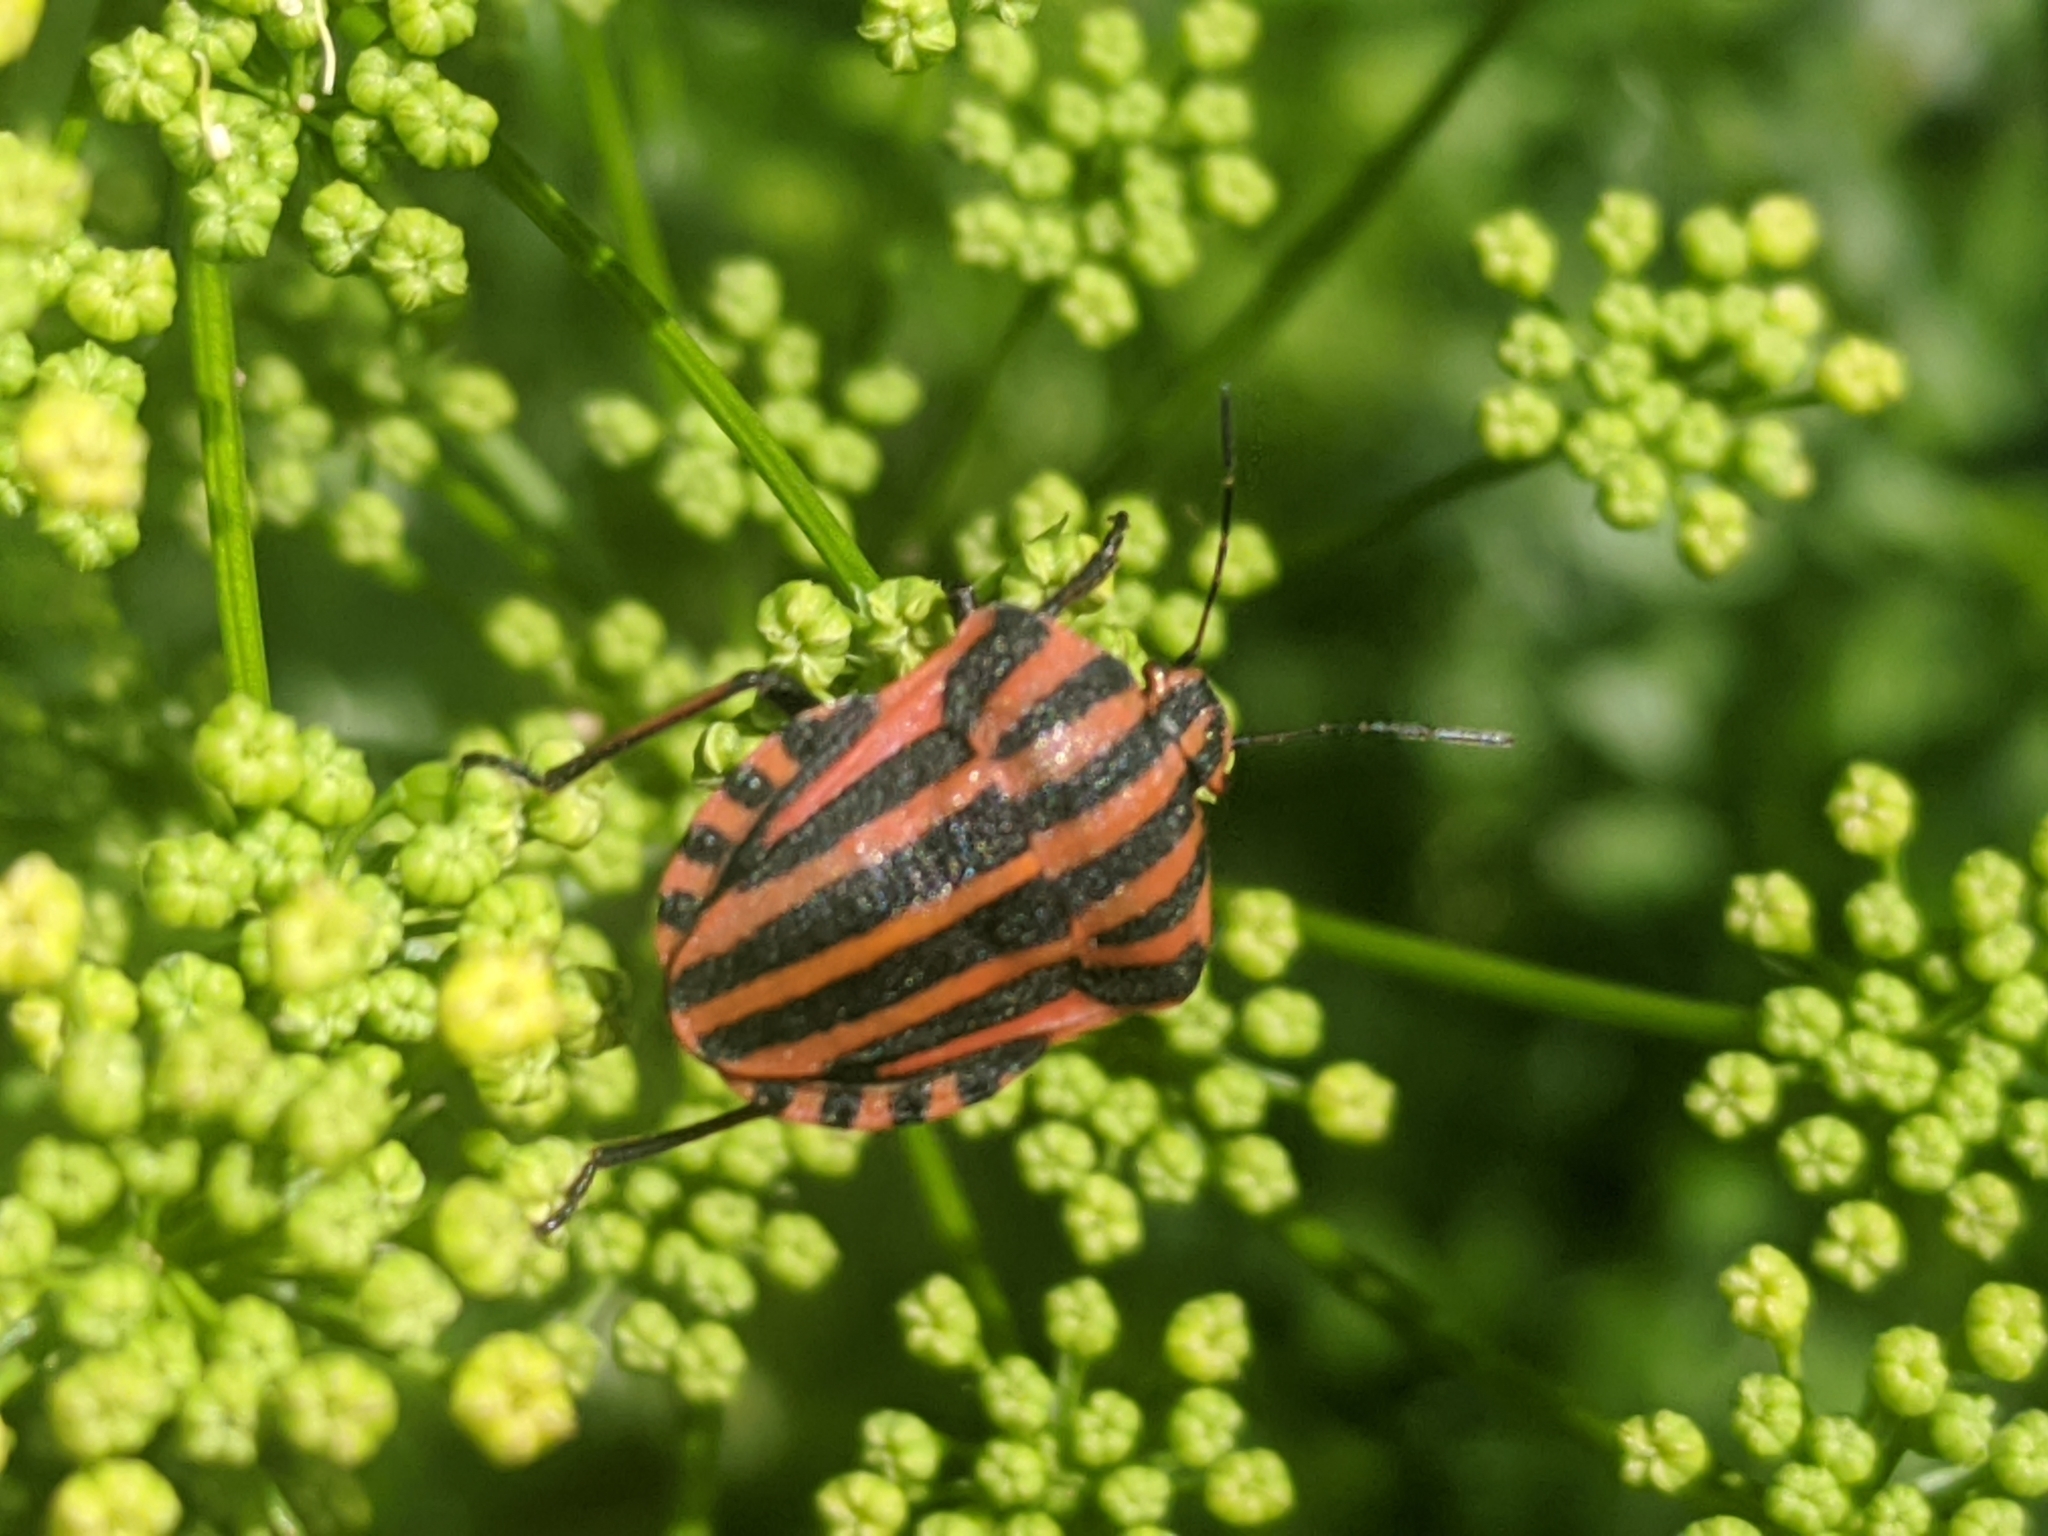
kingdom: Animalia
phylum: Arthropoda
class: Insecta
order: Hemiptera
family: Pentatomidae
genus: Graphosoma
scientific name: Graphosoma italicum
